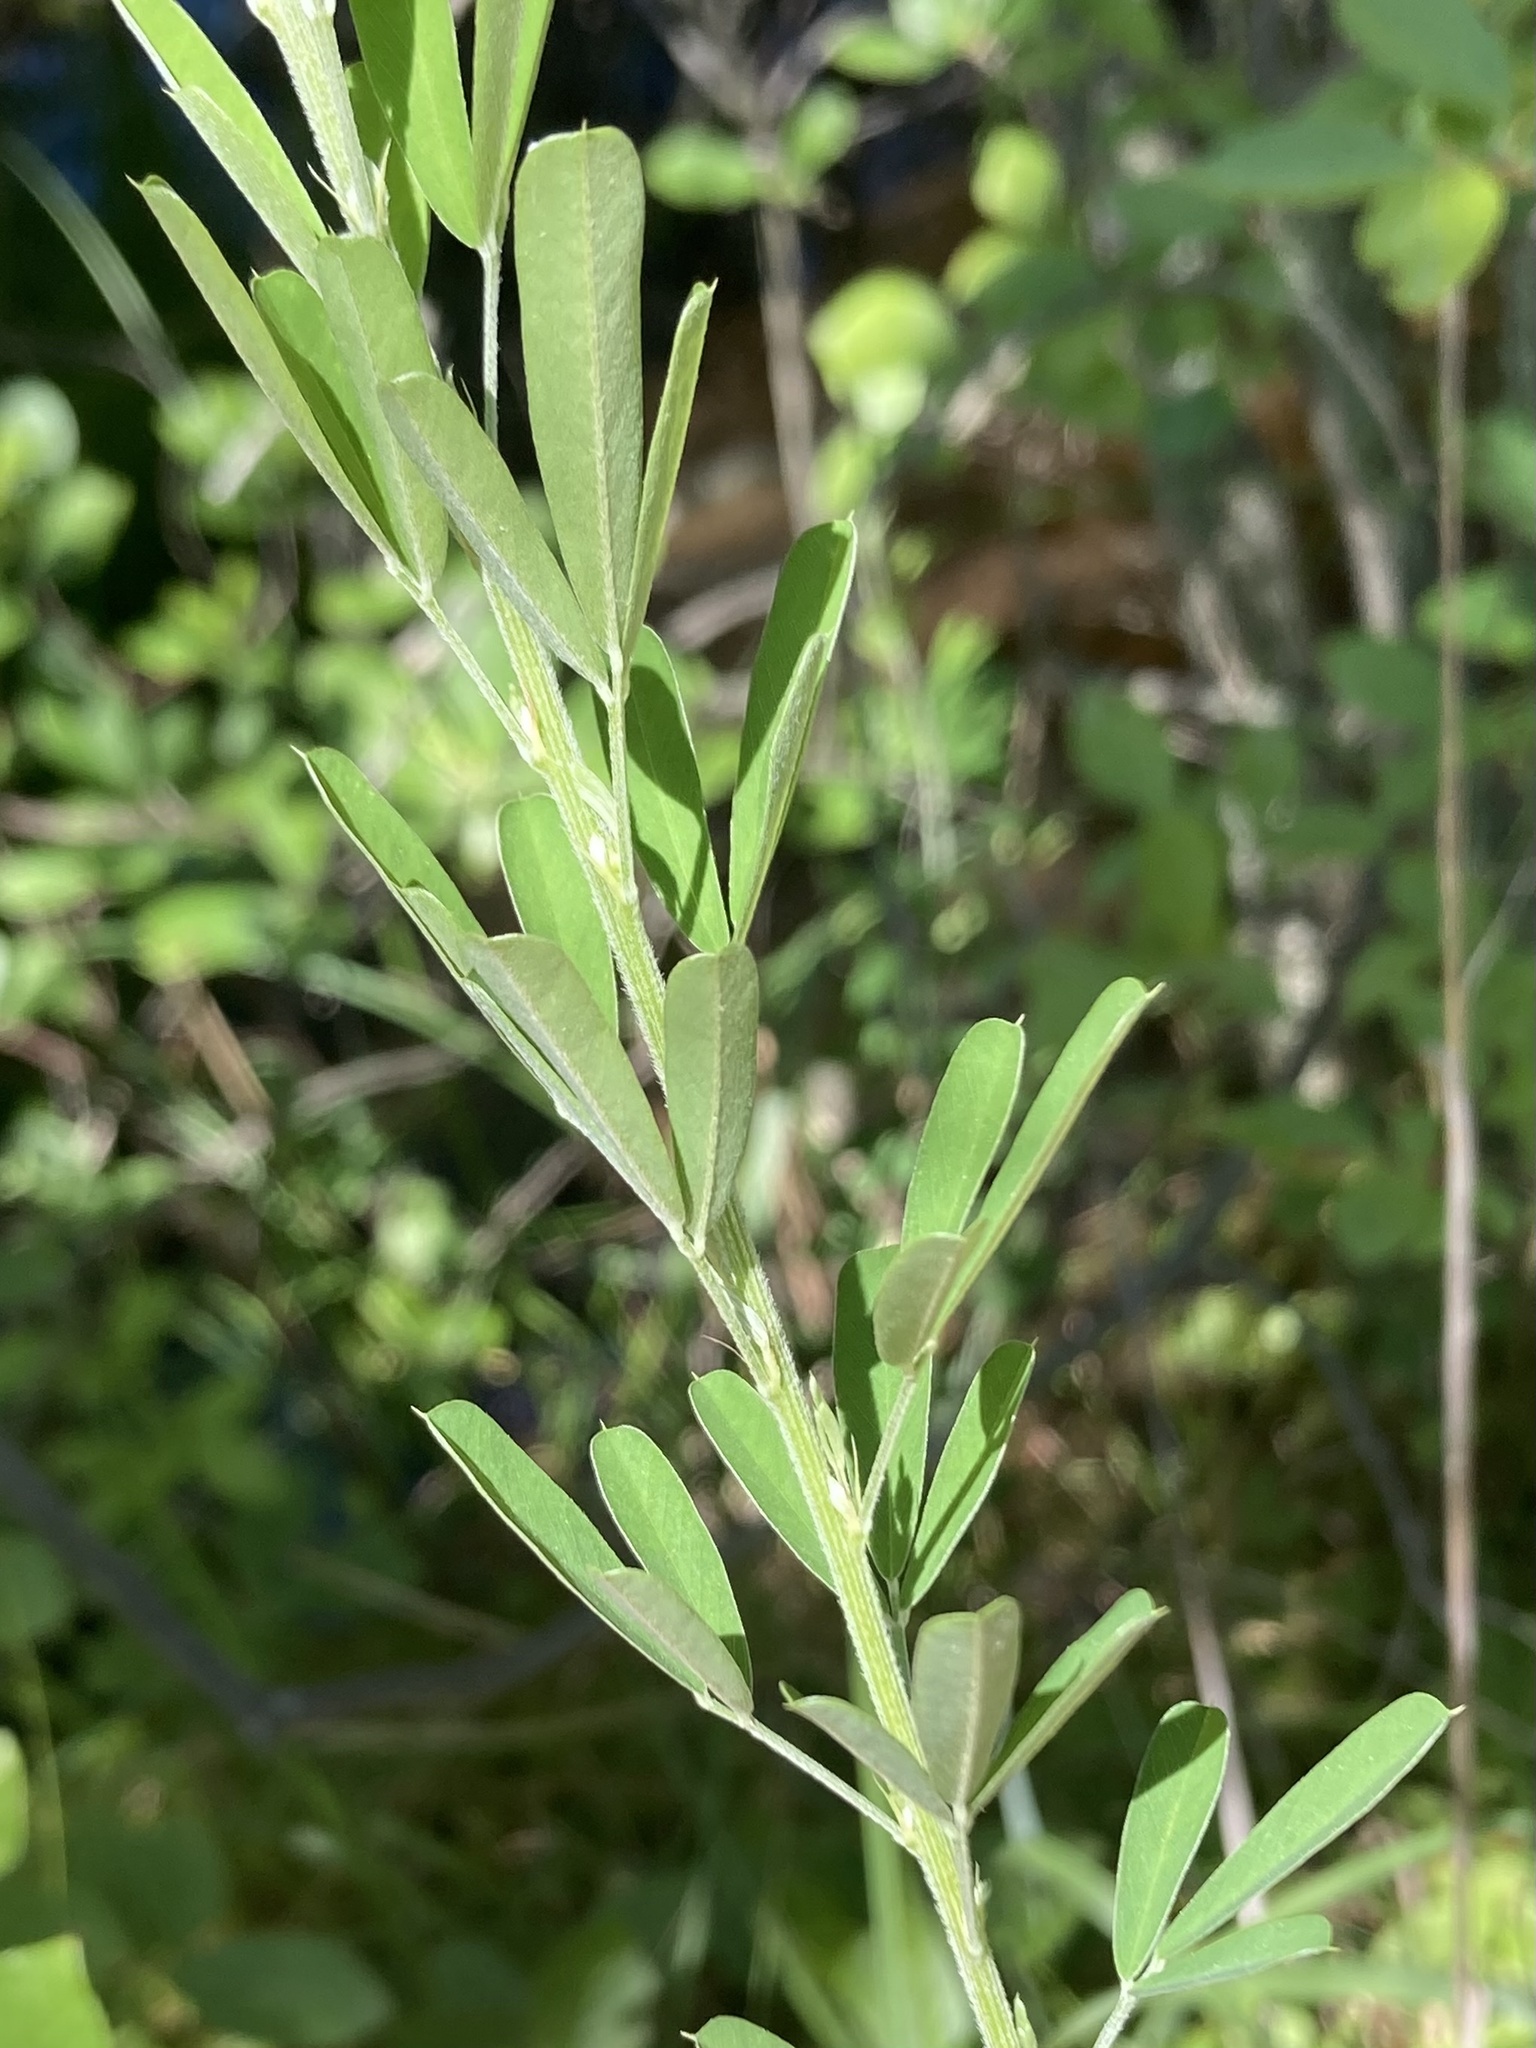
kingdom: Plantae
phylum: Tracheophyta
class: Magnoliopsida
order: Fabales
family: Fabaceae
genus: Lespedeza
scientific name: Lespedeza cuneata
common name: Chinese bush-clover
